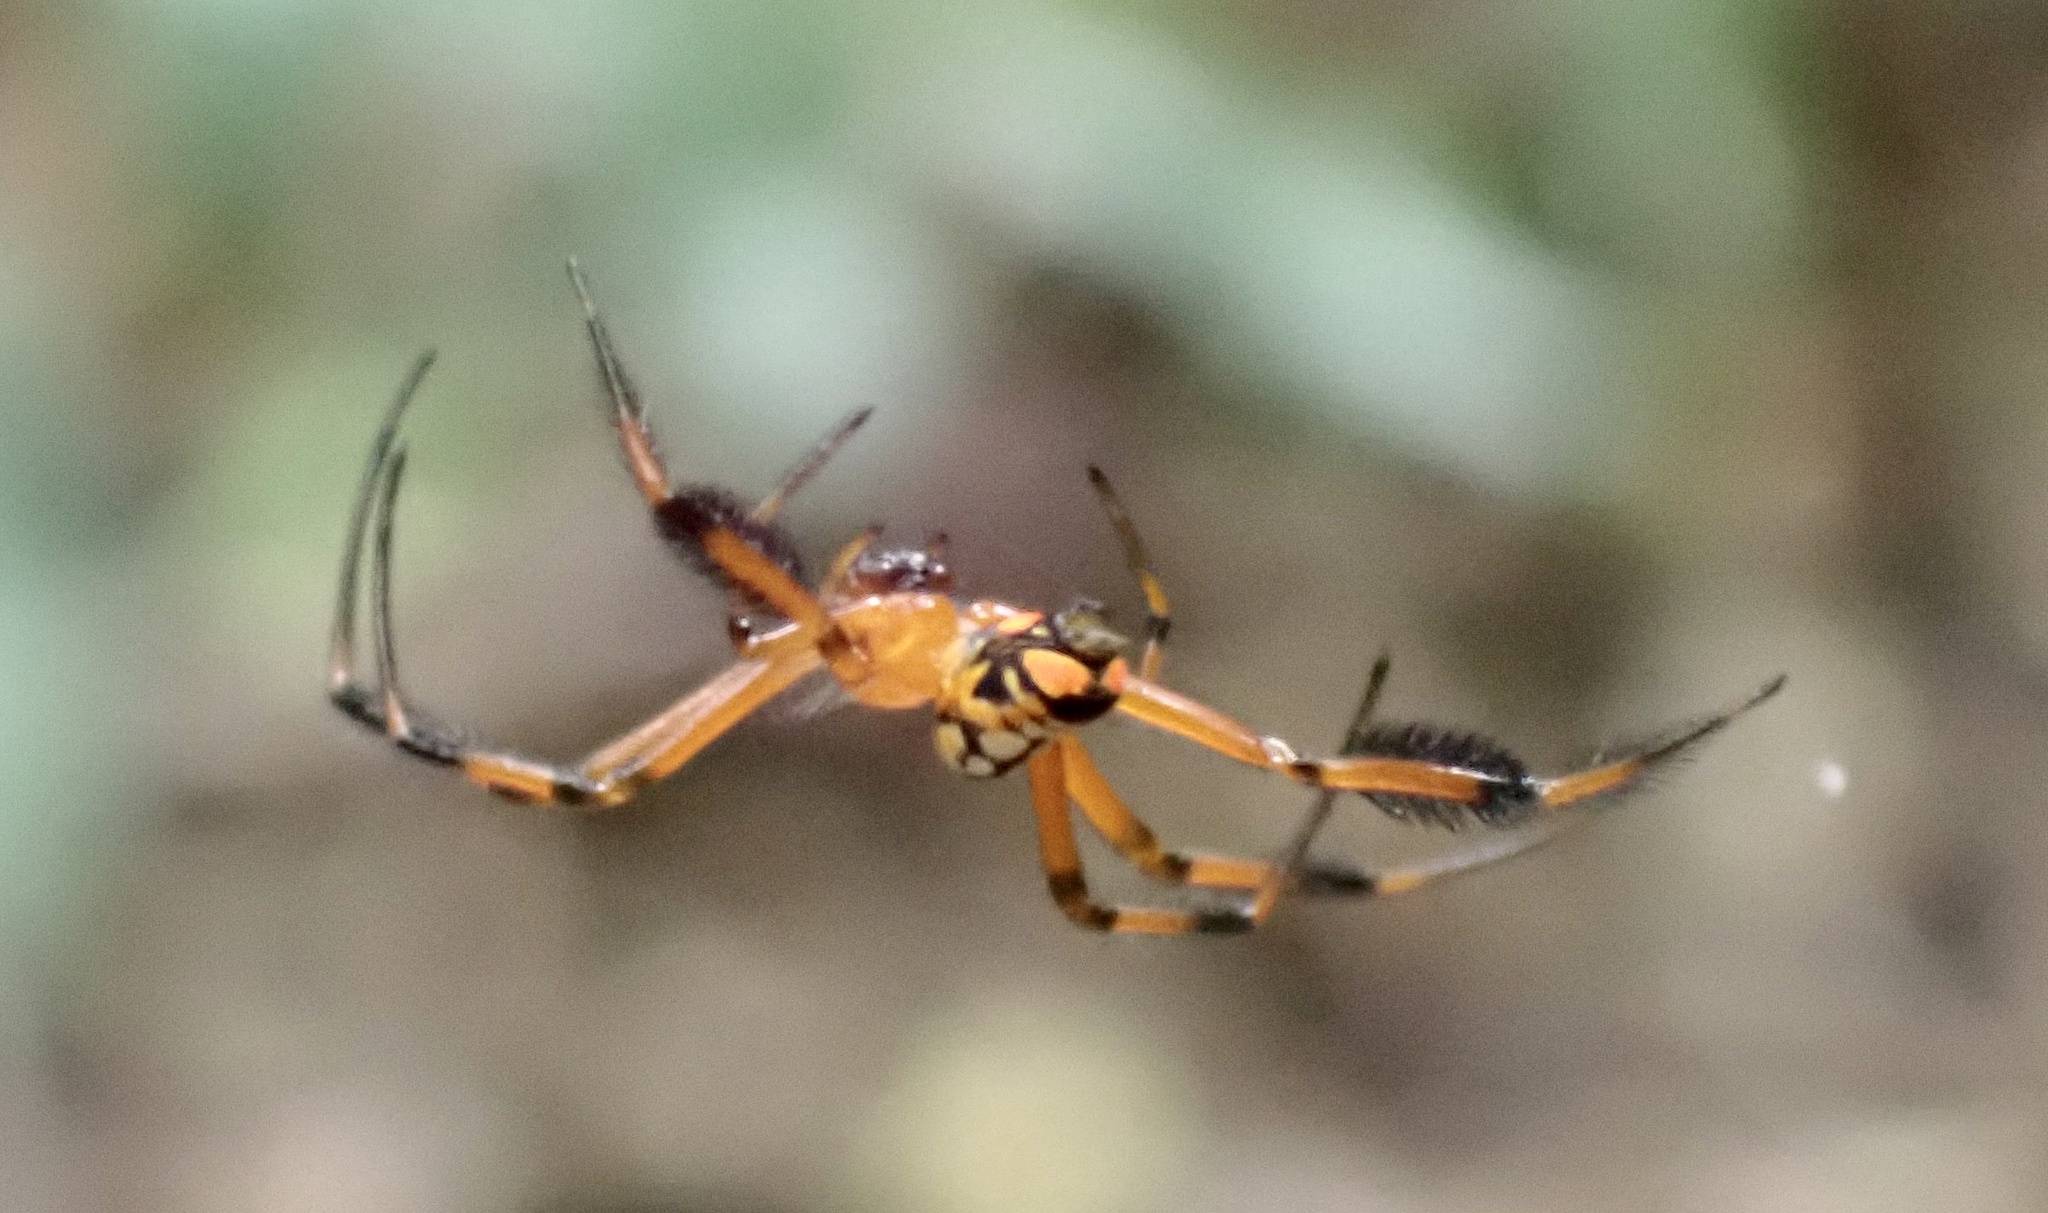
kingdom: Animalia
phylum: Arthropoda
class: Arachnida
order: Araneae
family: Tetragnathidae
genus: Leucauge
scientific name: Leucauge grata
